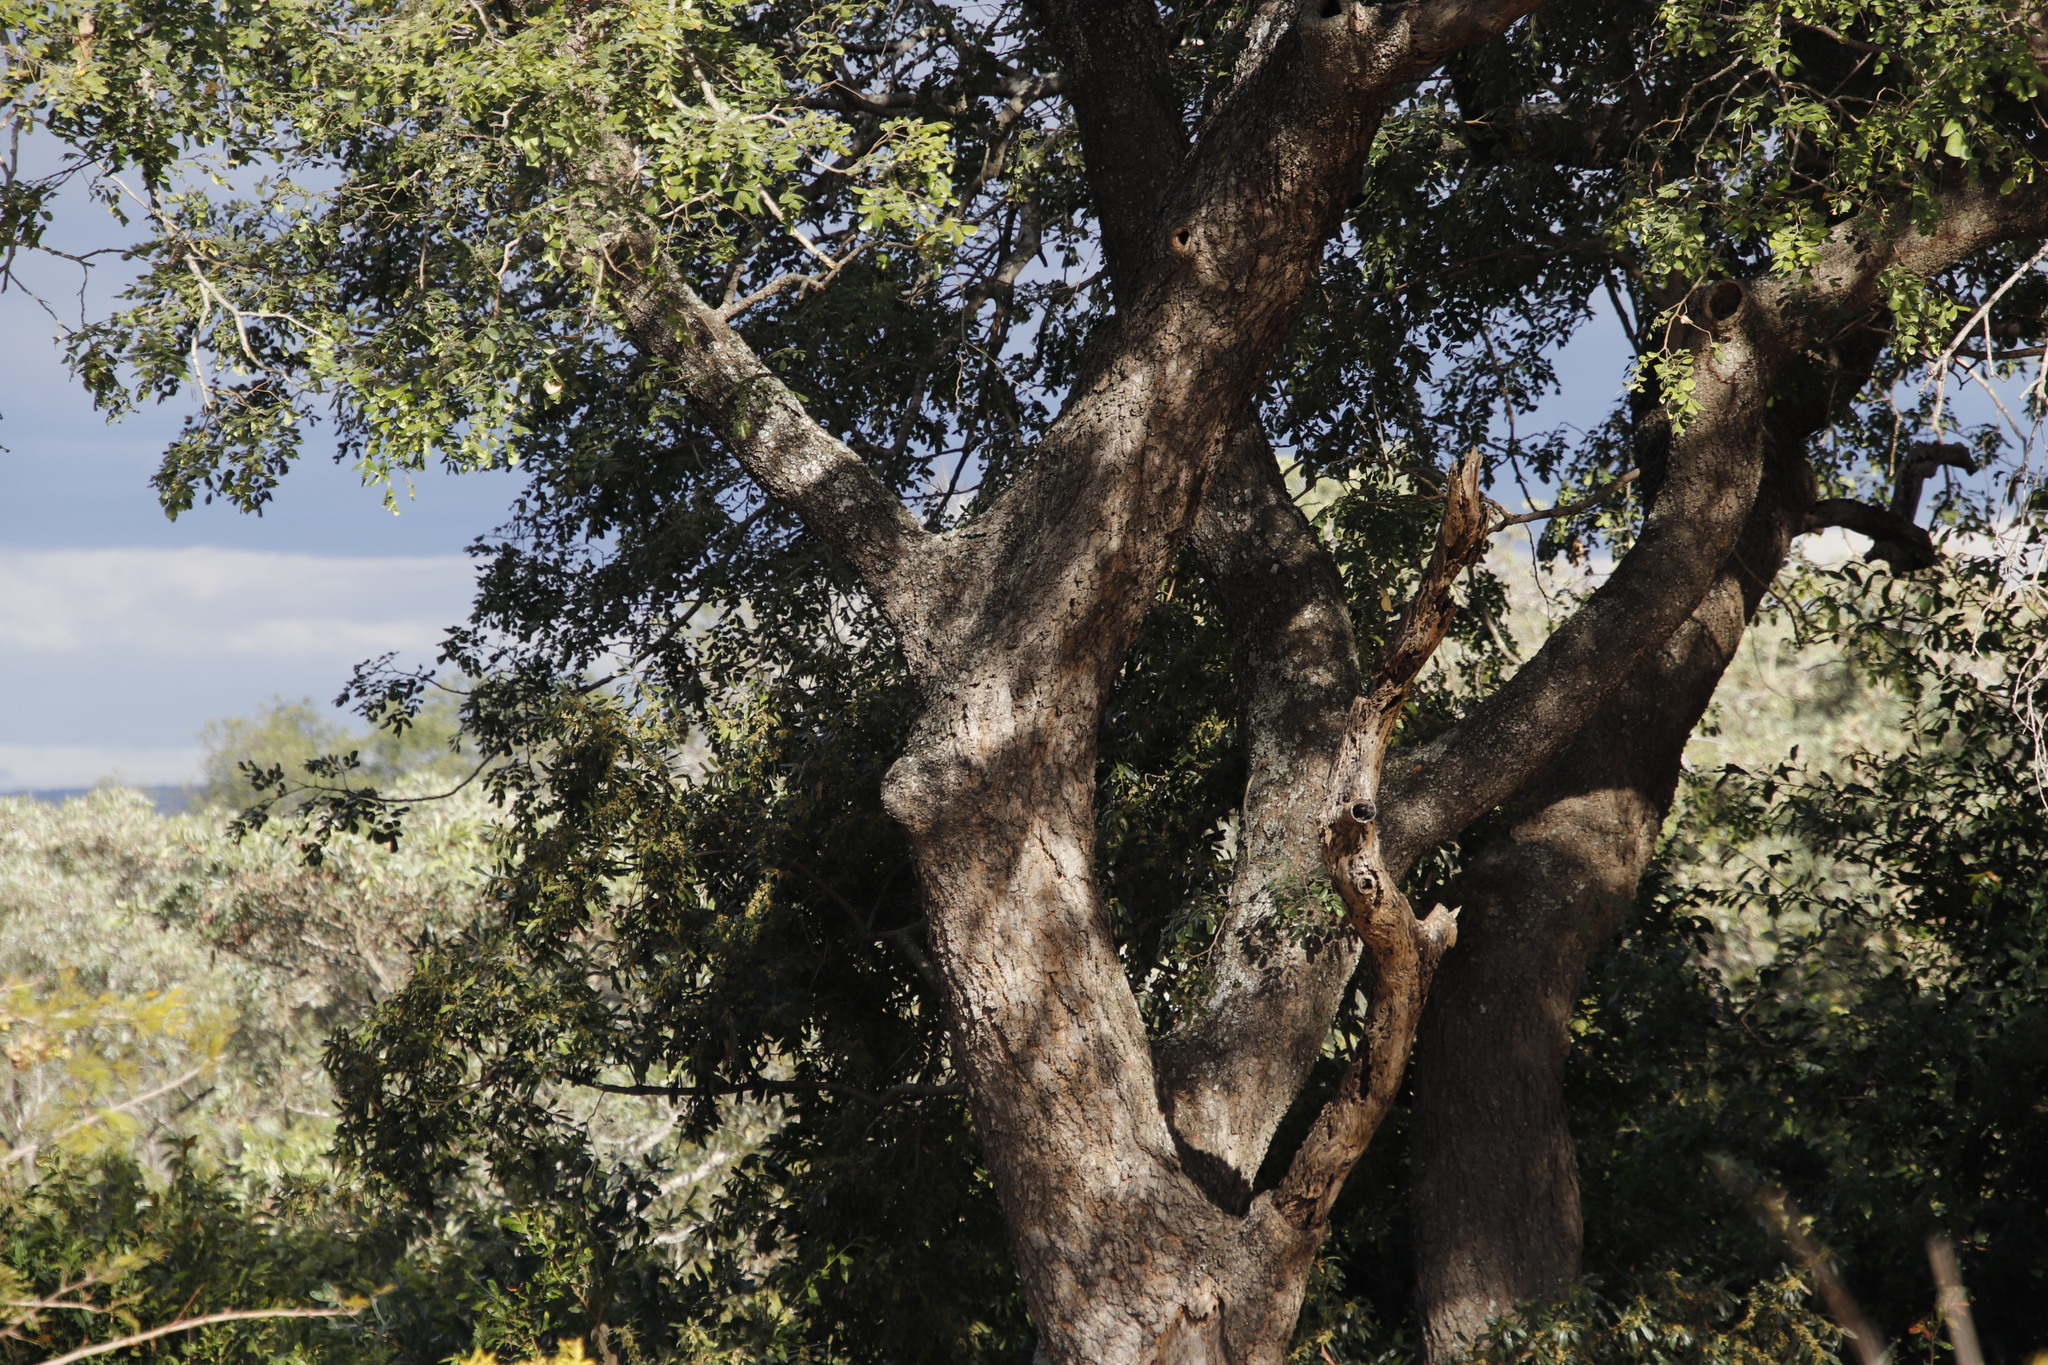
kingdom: Plantae
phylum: Tracheophyta
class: Magnoliopsida
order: Sapindales
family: Anacardiaceae
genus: Sclerocarya
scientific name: Sclerocarya birrea
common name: Marula
